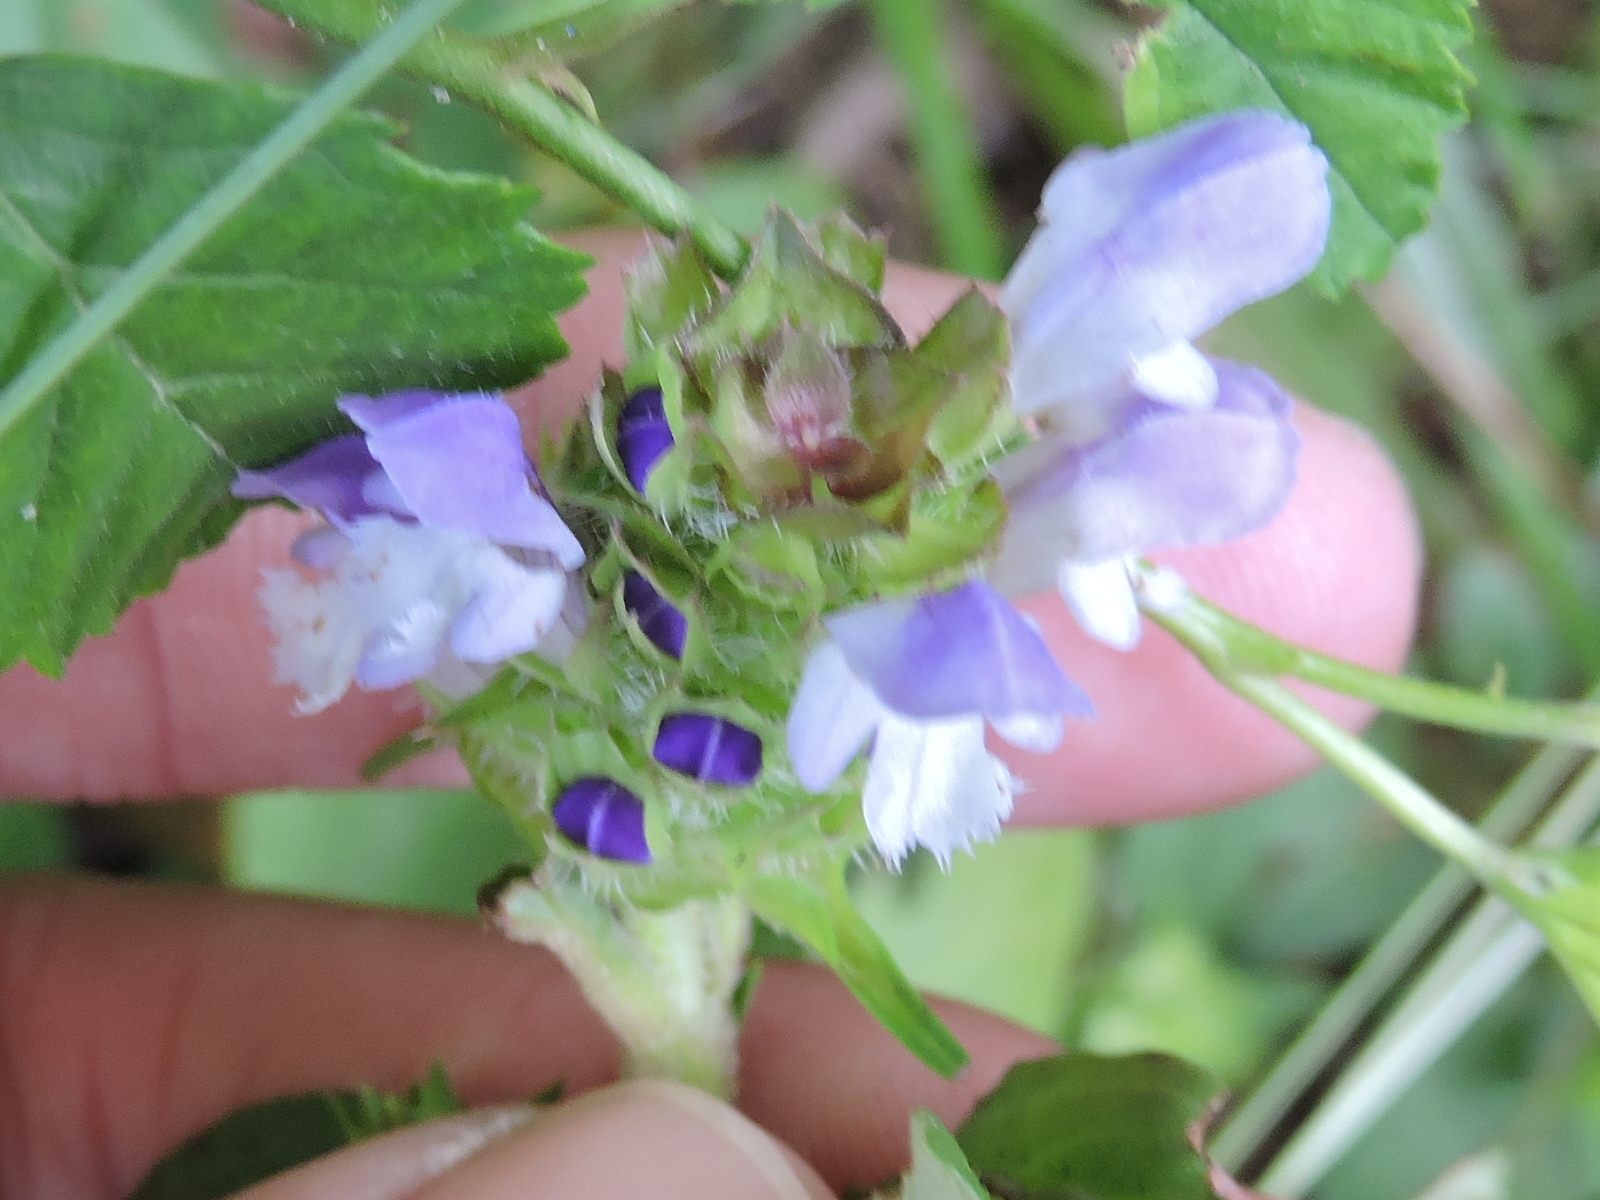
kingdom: Plantae
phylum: Tracheophyta
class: Magnoliopsida
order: Lamiales
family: Lamiaceae
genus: Prunella
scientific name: Prunella vulgaris
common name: Heal-all
